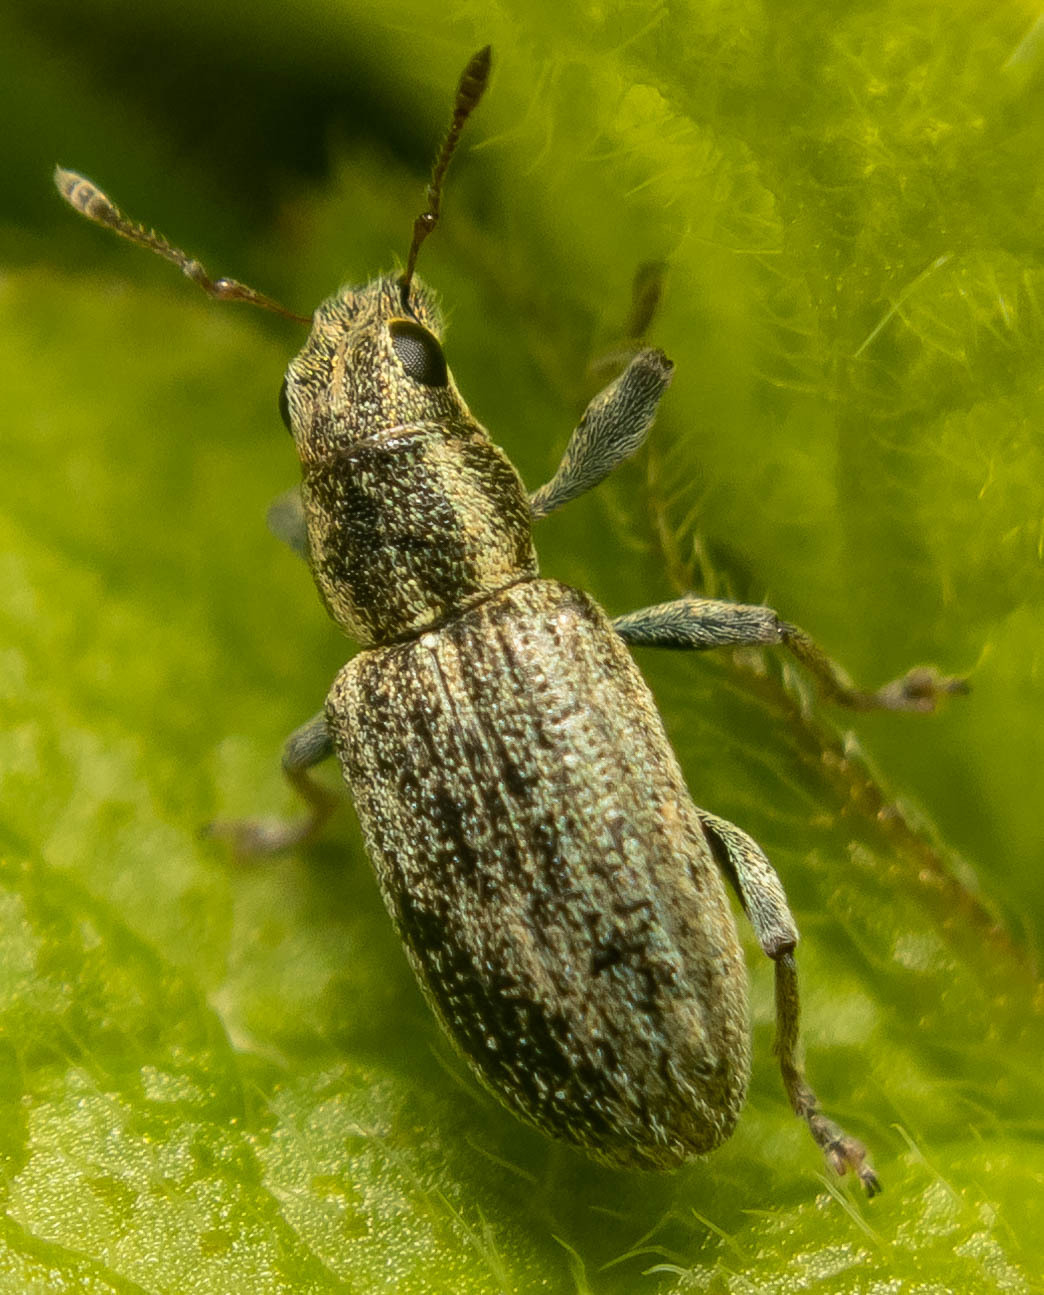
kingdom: Animalia
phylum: Arthropoda
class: Insecta
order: Coleoptera
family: Curculionidae
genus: Sitona
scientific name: Sitona lineatus
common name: Weevil
